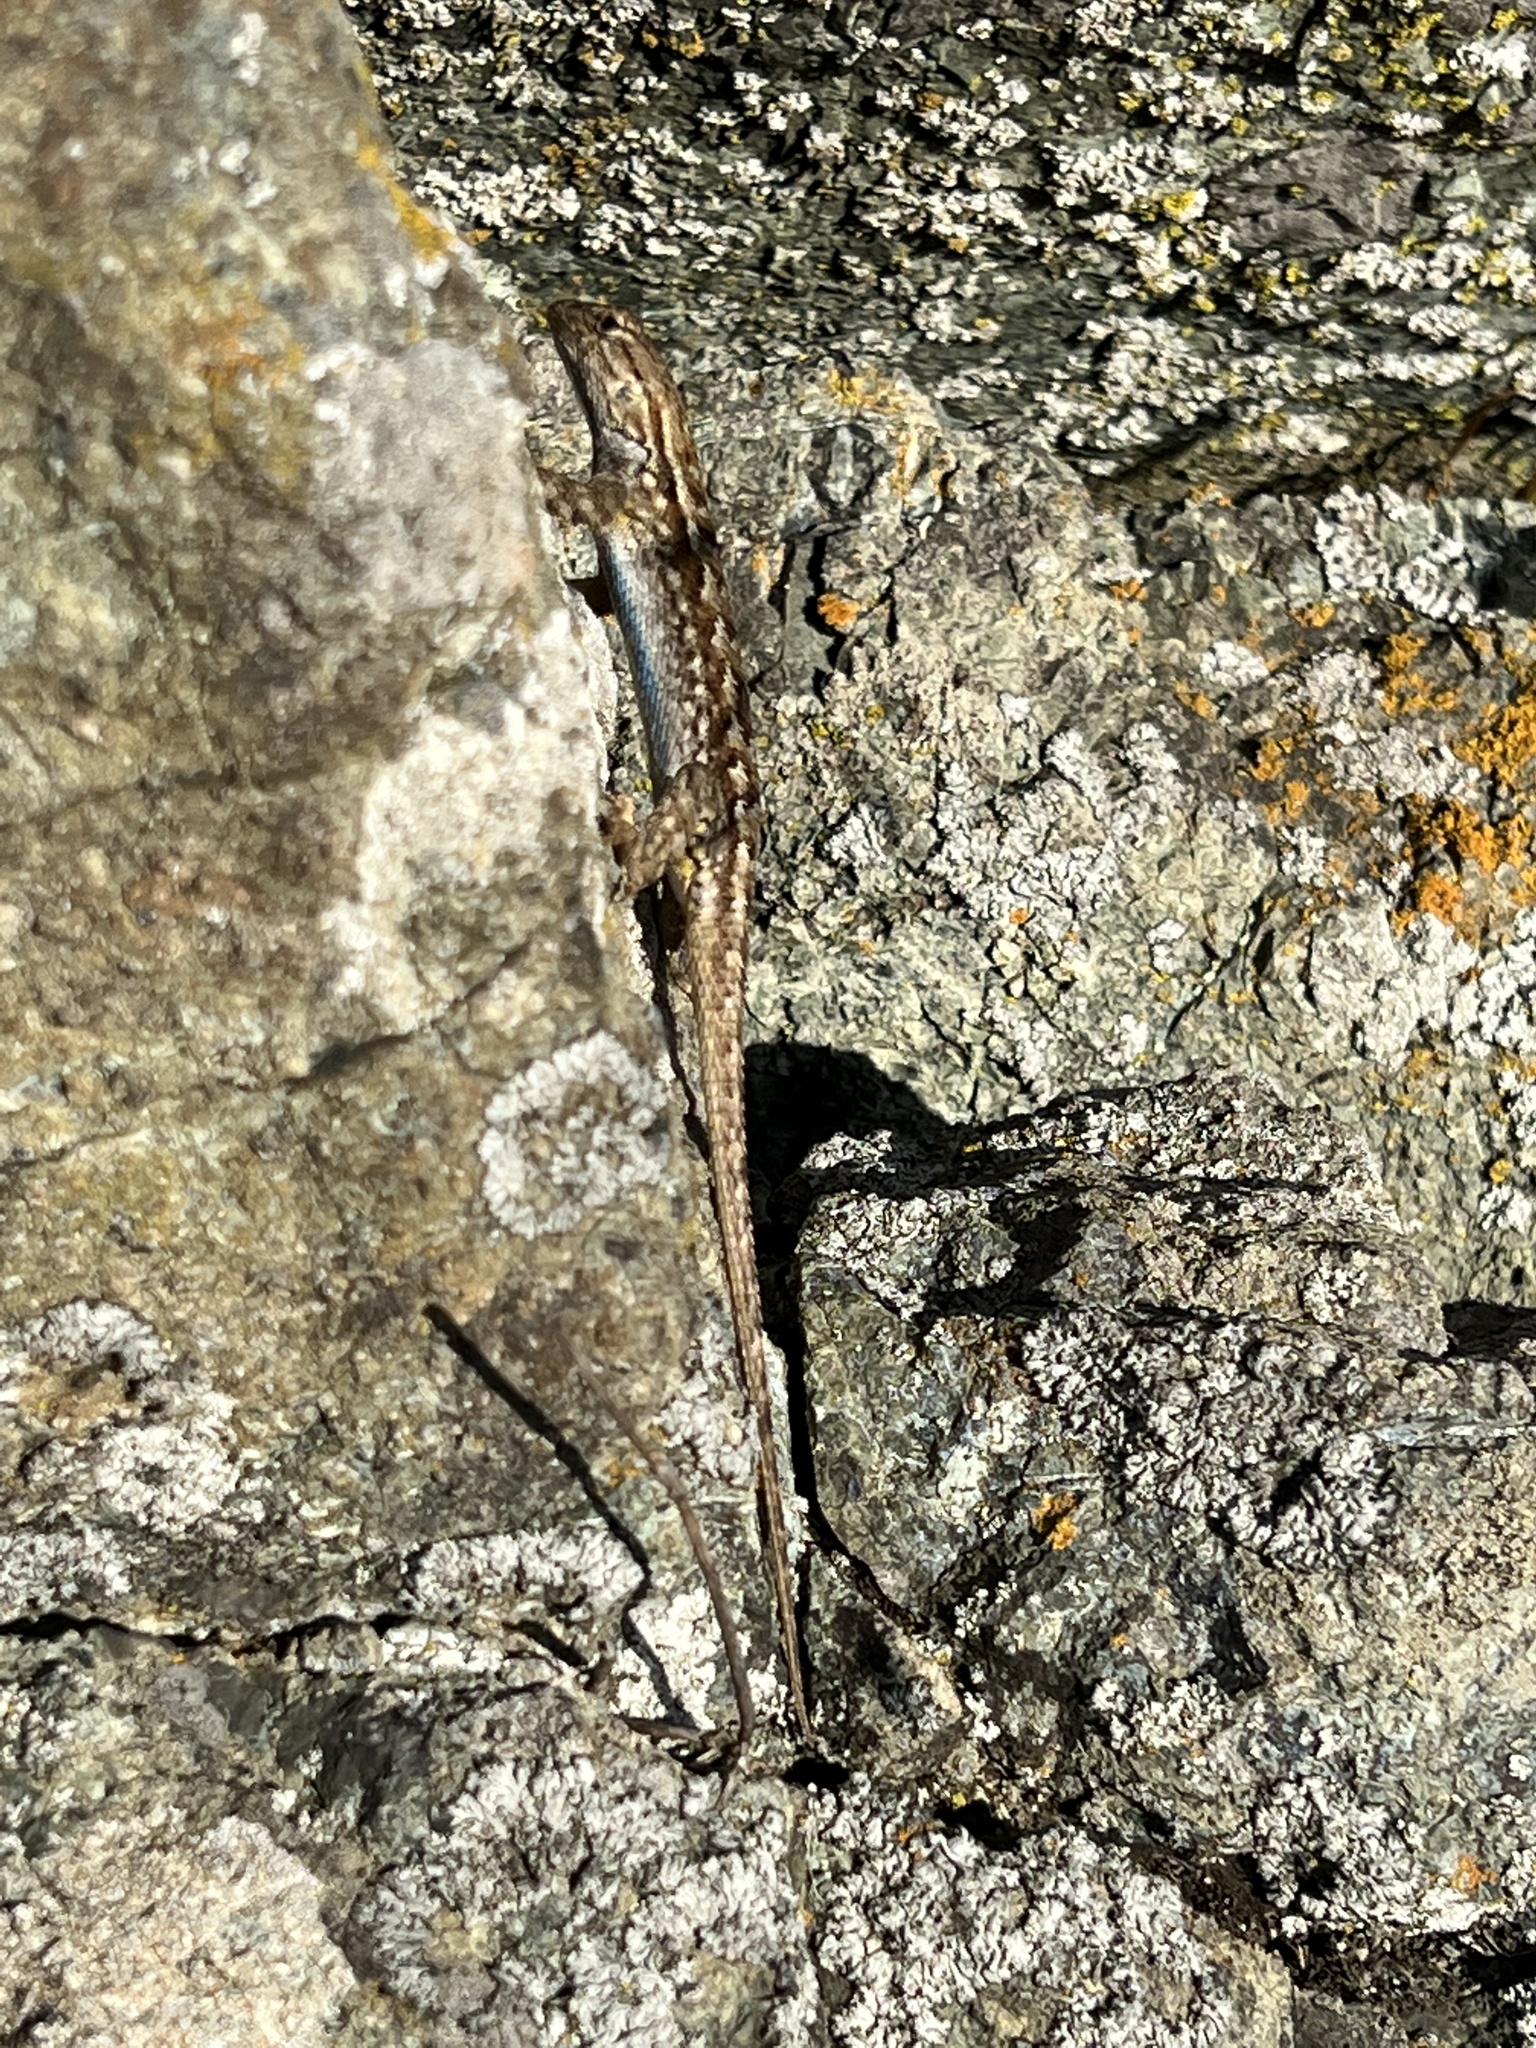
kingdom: Animalia
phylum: Chordata
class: Squamata
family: Phrynosomatidae
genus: Sceloporus
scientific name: Sceloporus occidentalis
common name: Western fence lizard
